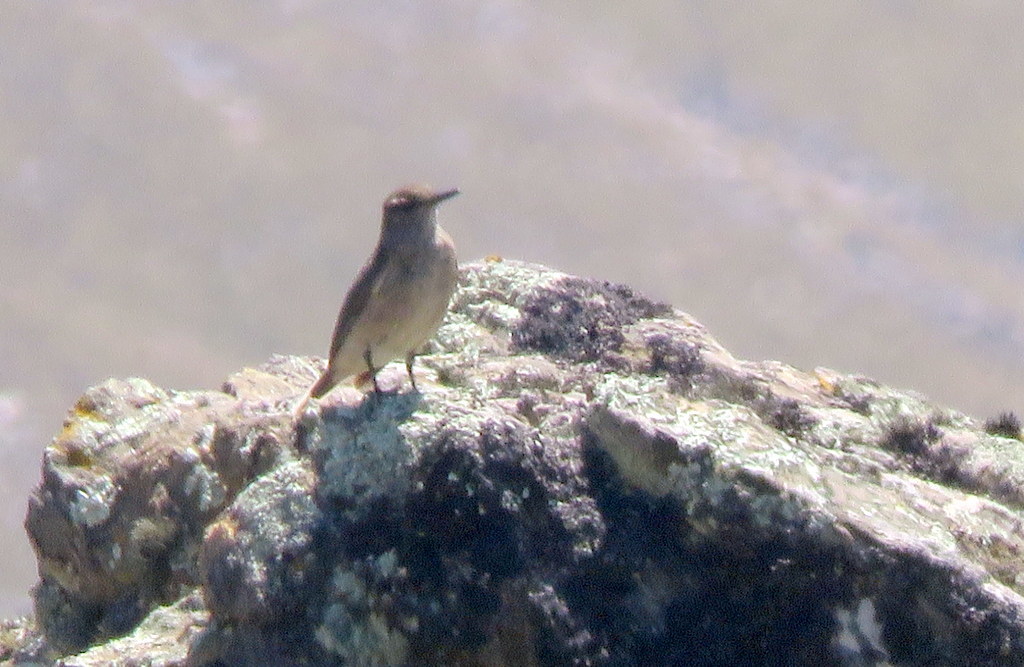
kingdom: Animalia
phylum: Chordata
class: Aves
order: Passeriformes
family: Tyrannidae
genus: Agriornis
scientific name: Agriornis montanus
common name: Black-billed shrike-tyrant
